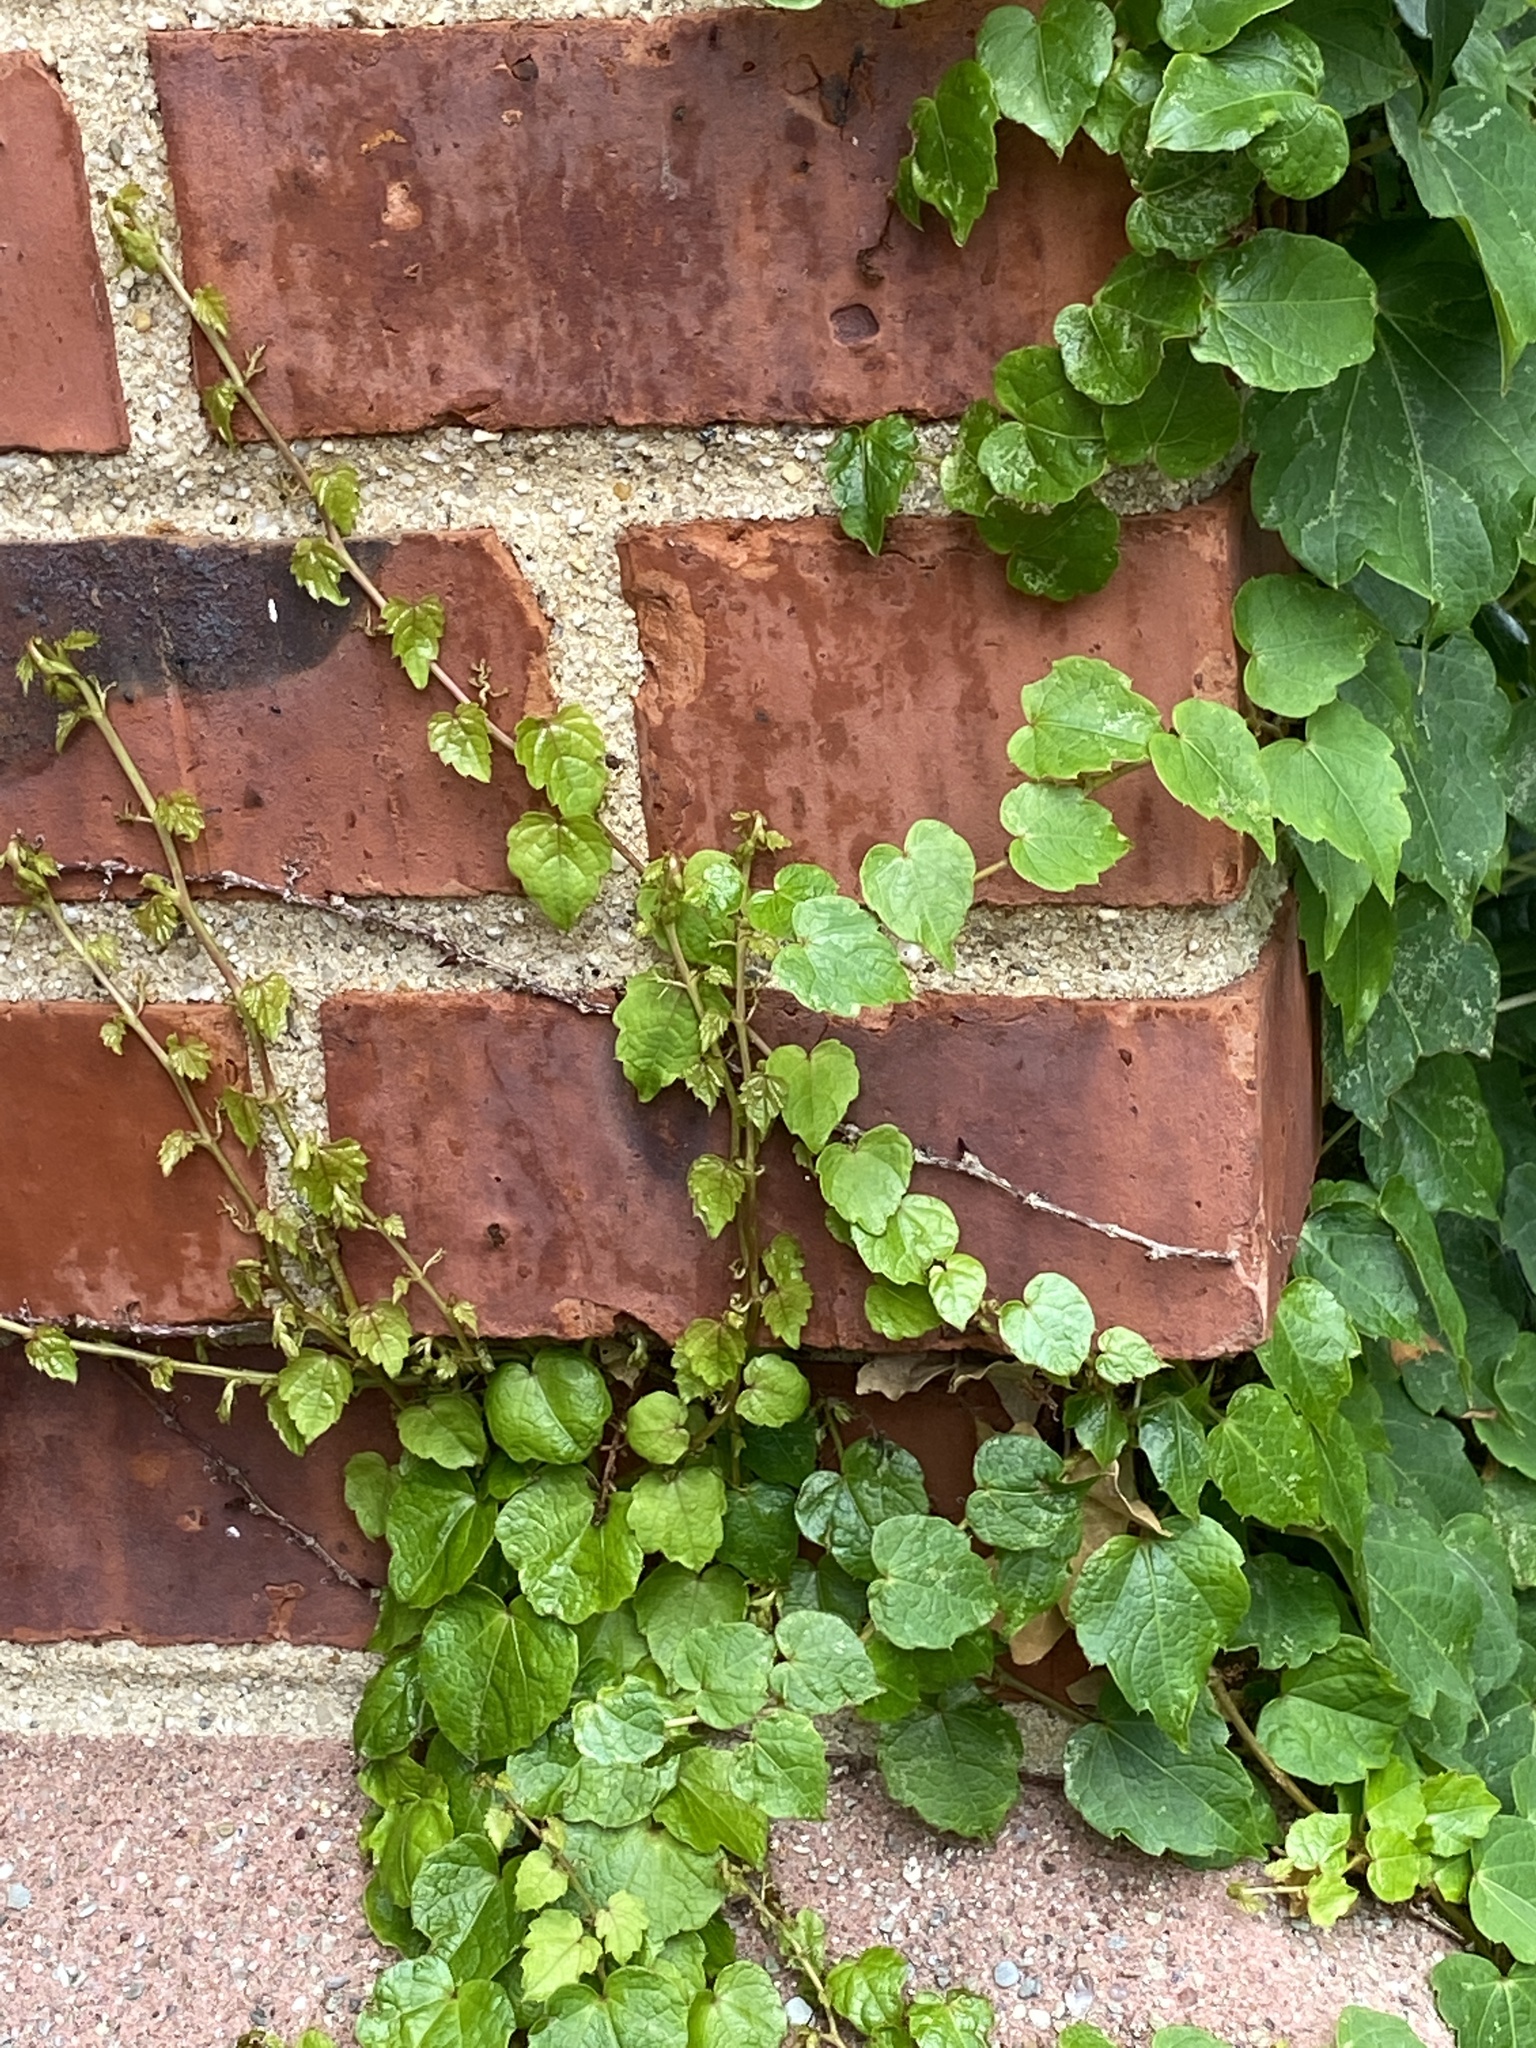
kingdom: Plantae
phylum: Tracheophyta
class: Magnoliopsida
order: Vitales
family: Vitaceae
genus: Parthenocissus
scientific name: Parthenocissus tricuspidata
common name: Boston ivy
